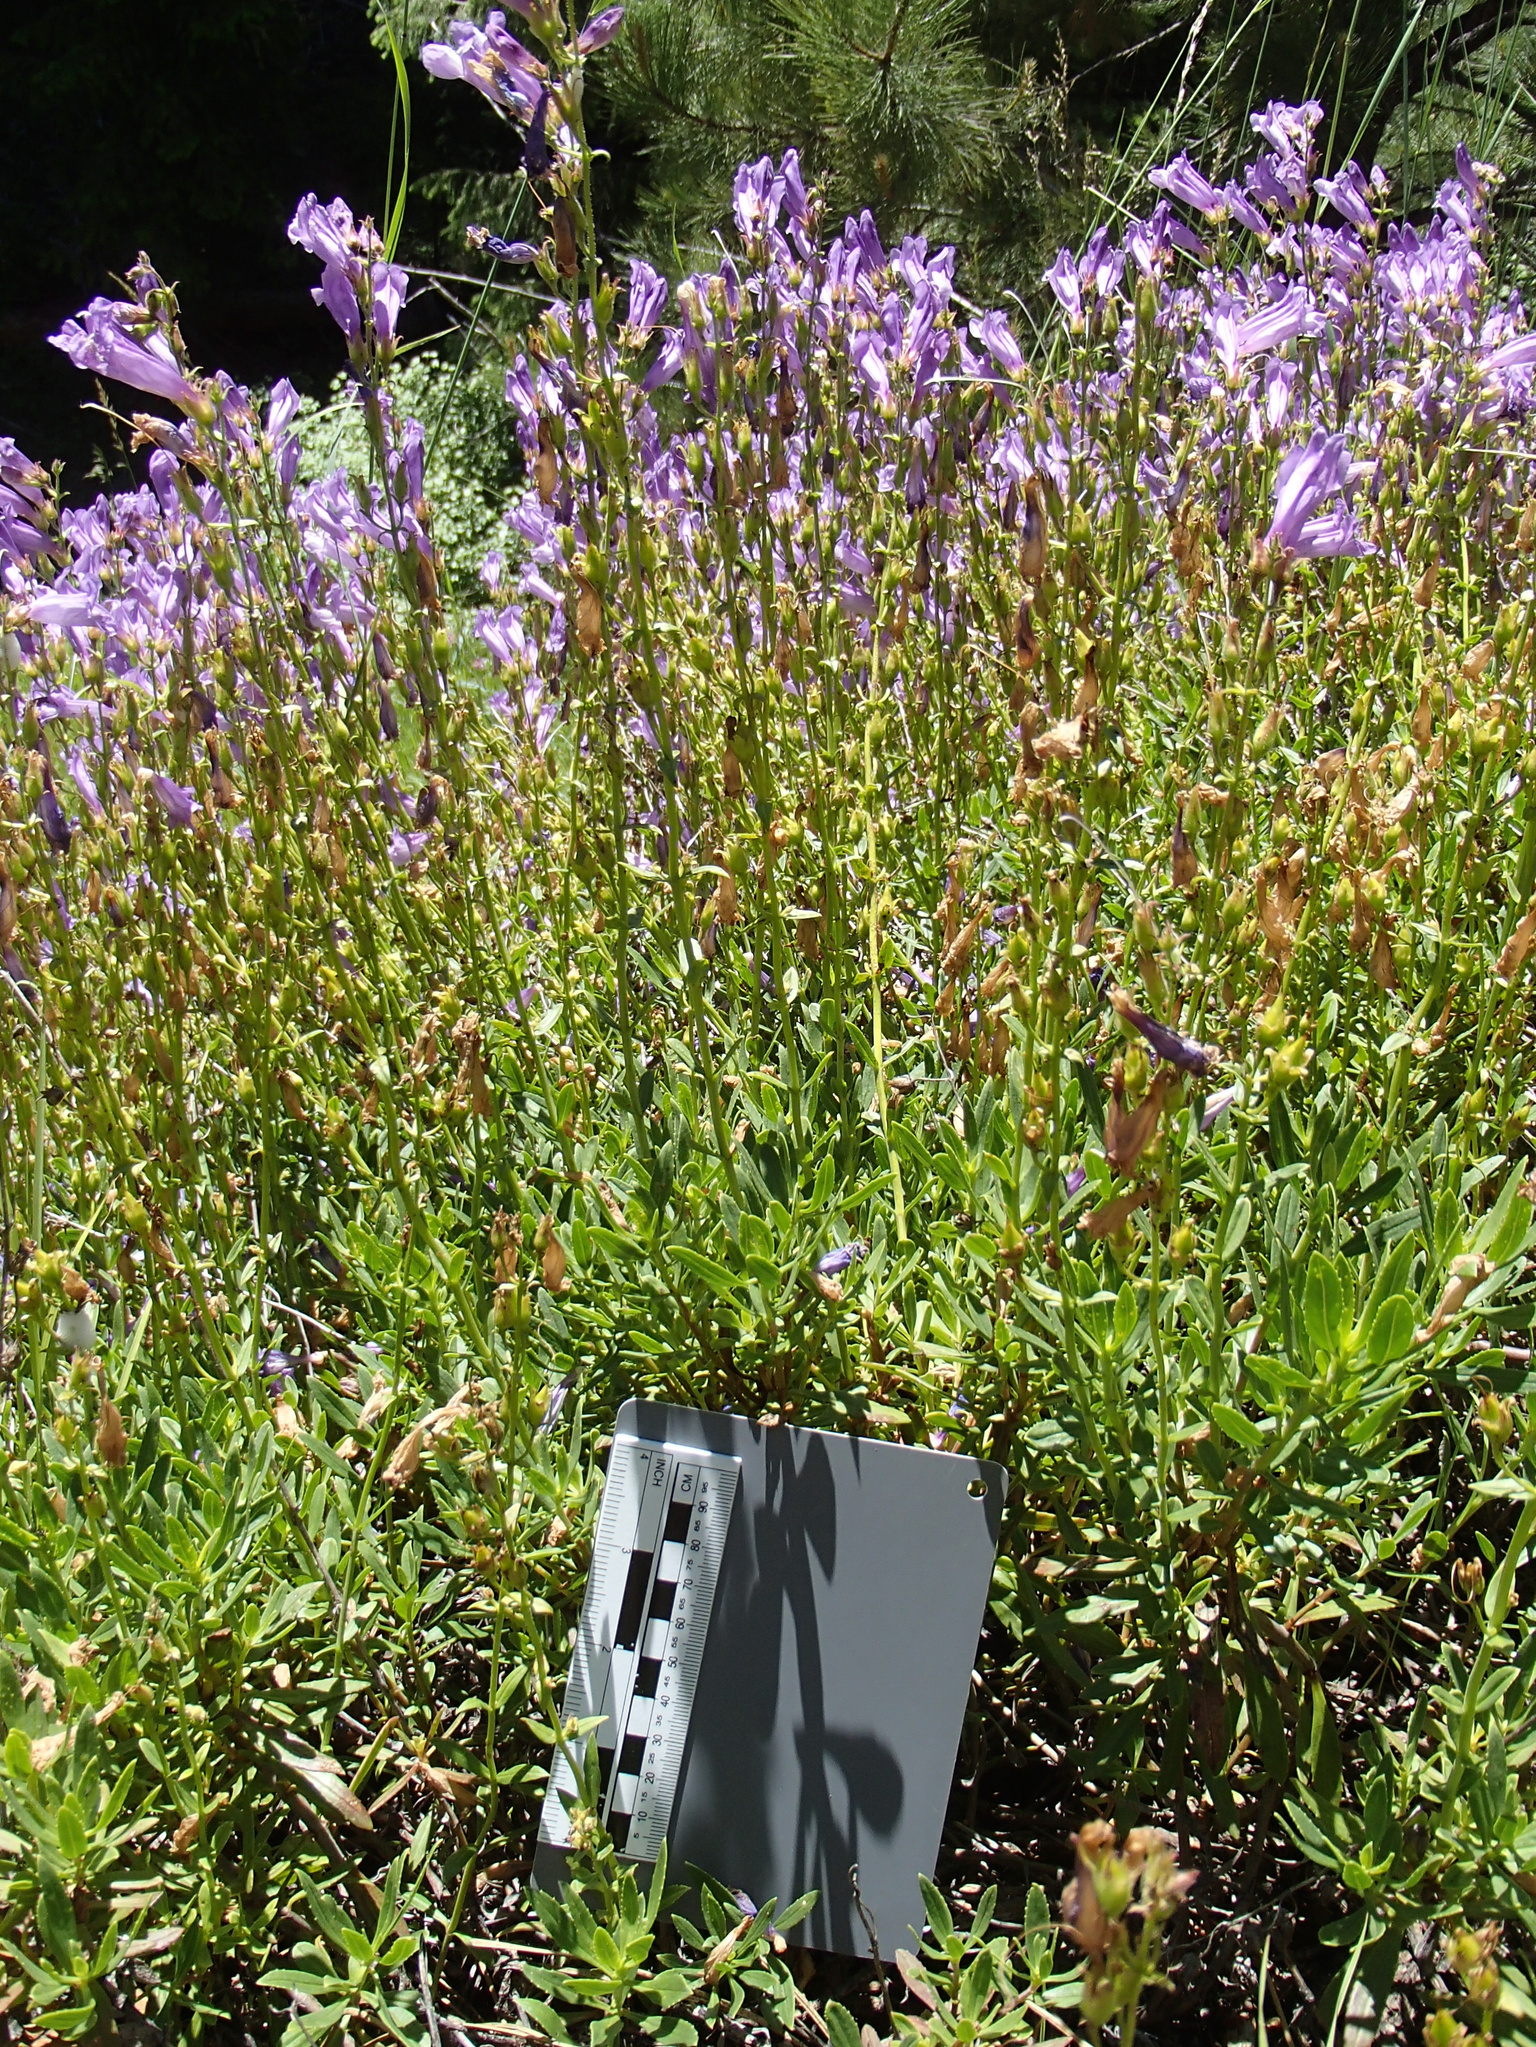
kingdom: Plantae
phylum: Tracheophyta
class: Magnoliopsida
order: Lamiales
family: Plantaginaceae
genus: Penstemon
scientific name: Penstemon fruticosus
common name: Bush penstemon
